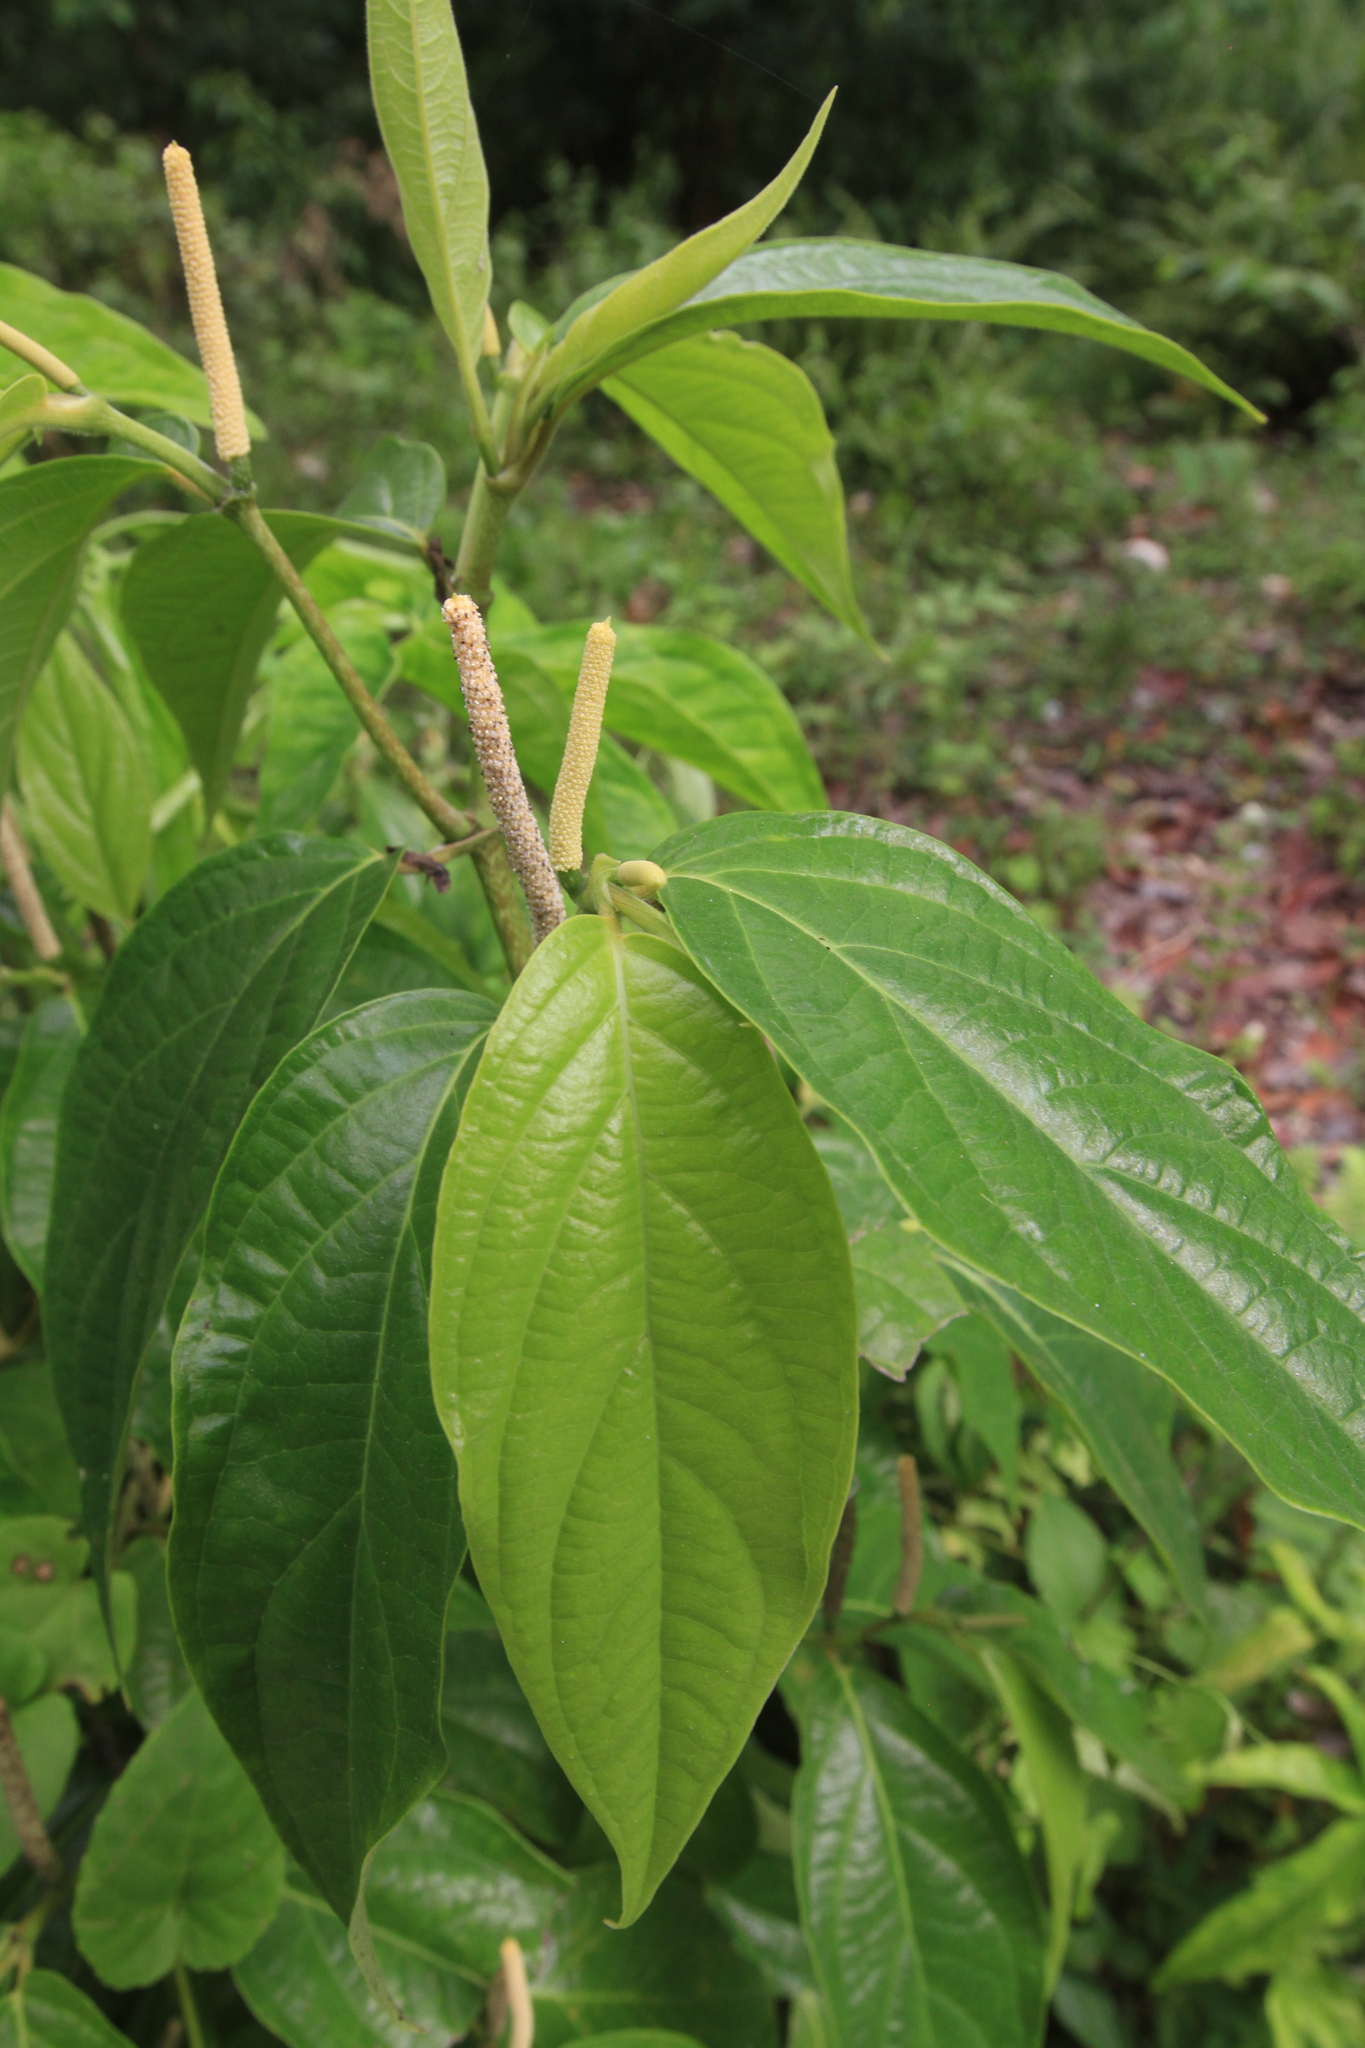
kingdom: Plantae
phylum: Tracheophyta
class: Magnoliopsida
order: Piperales
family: Piperaceae
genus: Piper
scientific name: Piper jacquemontianum
